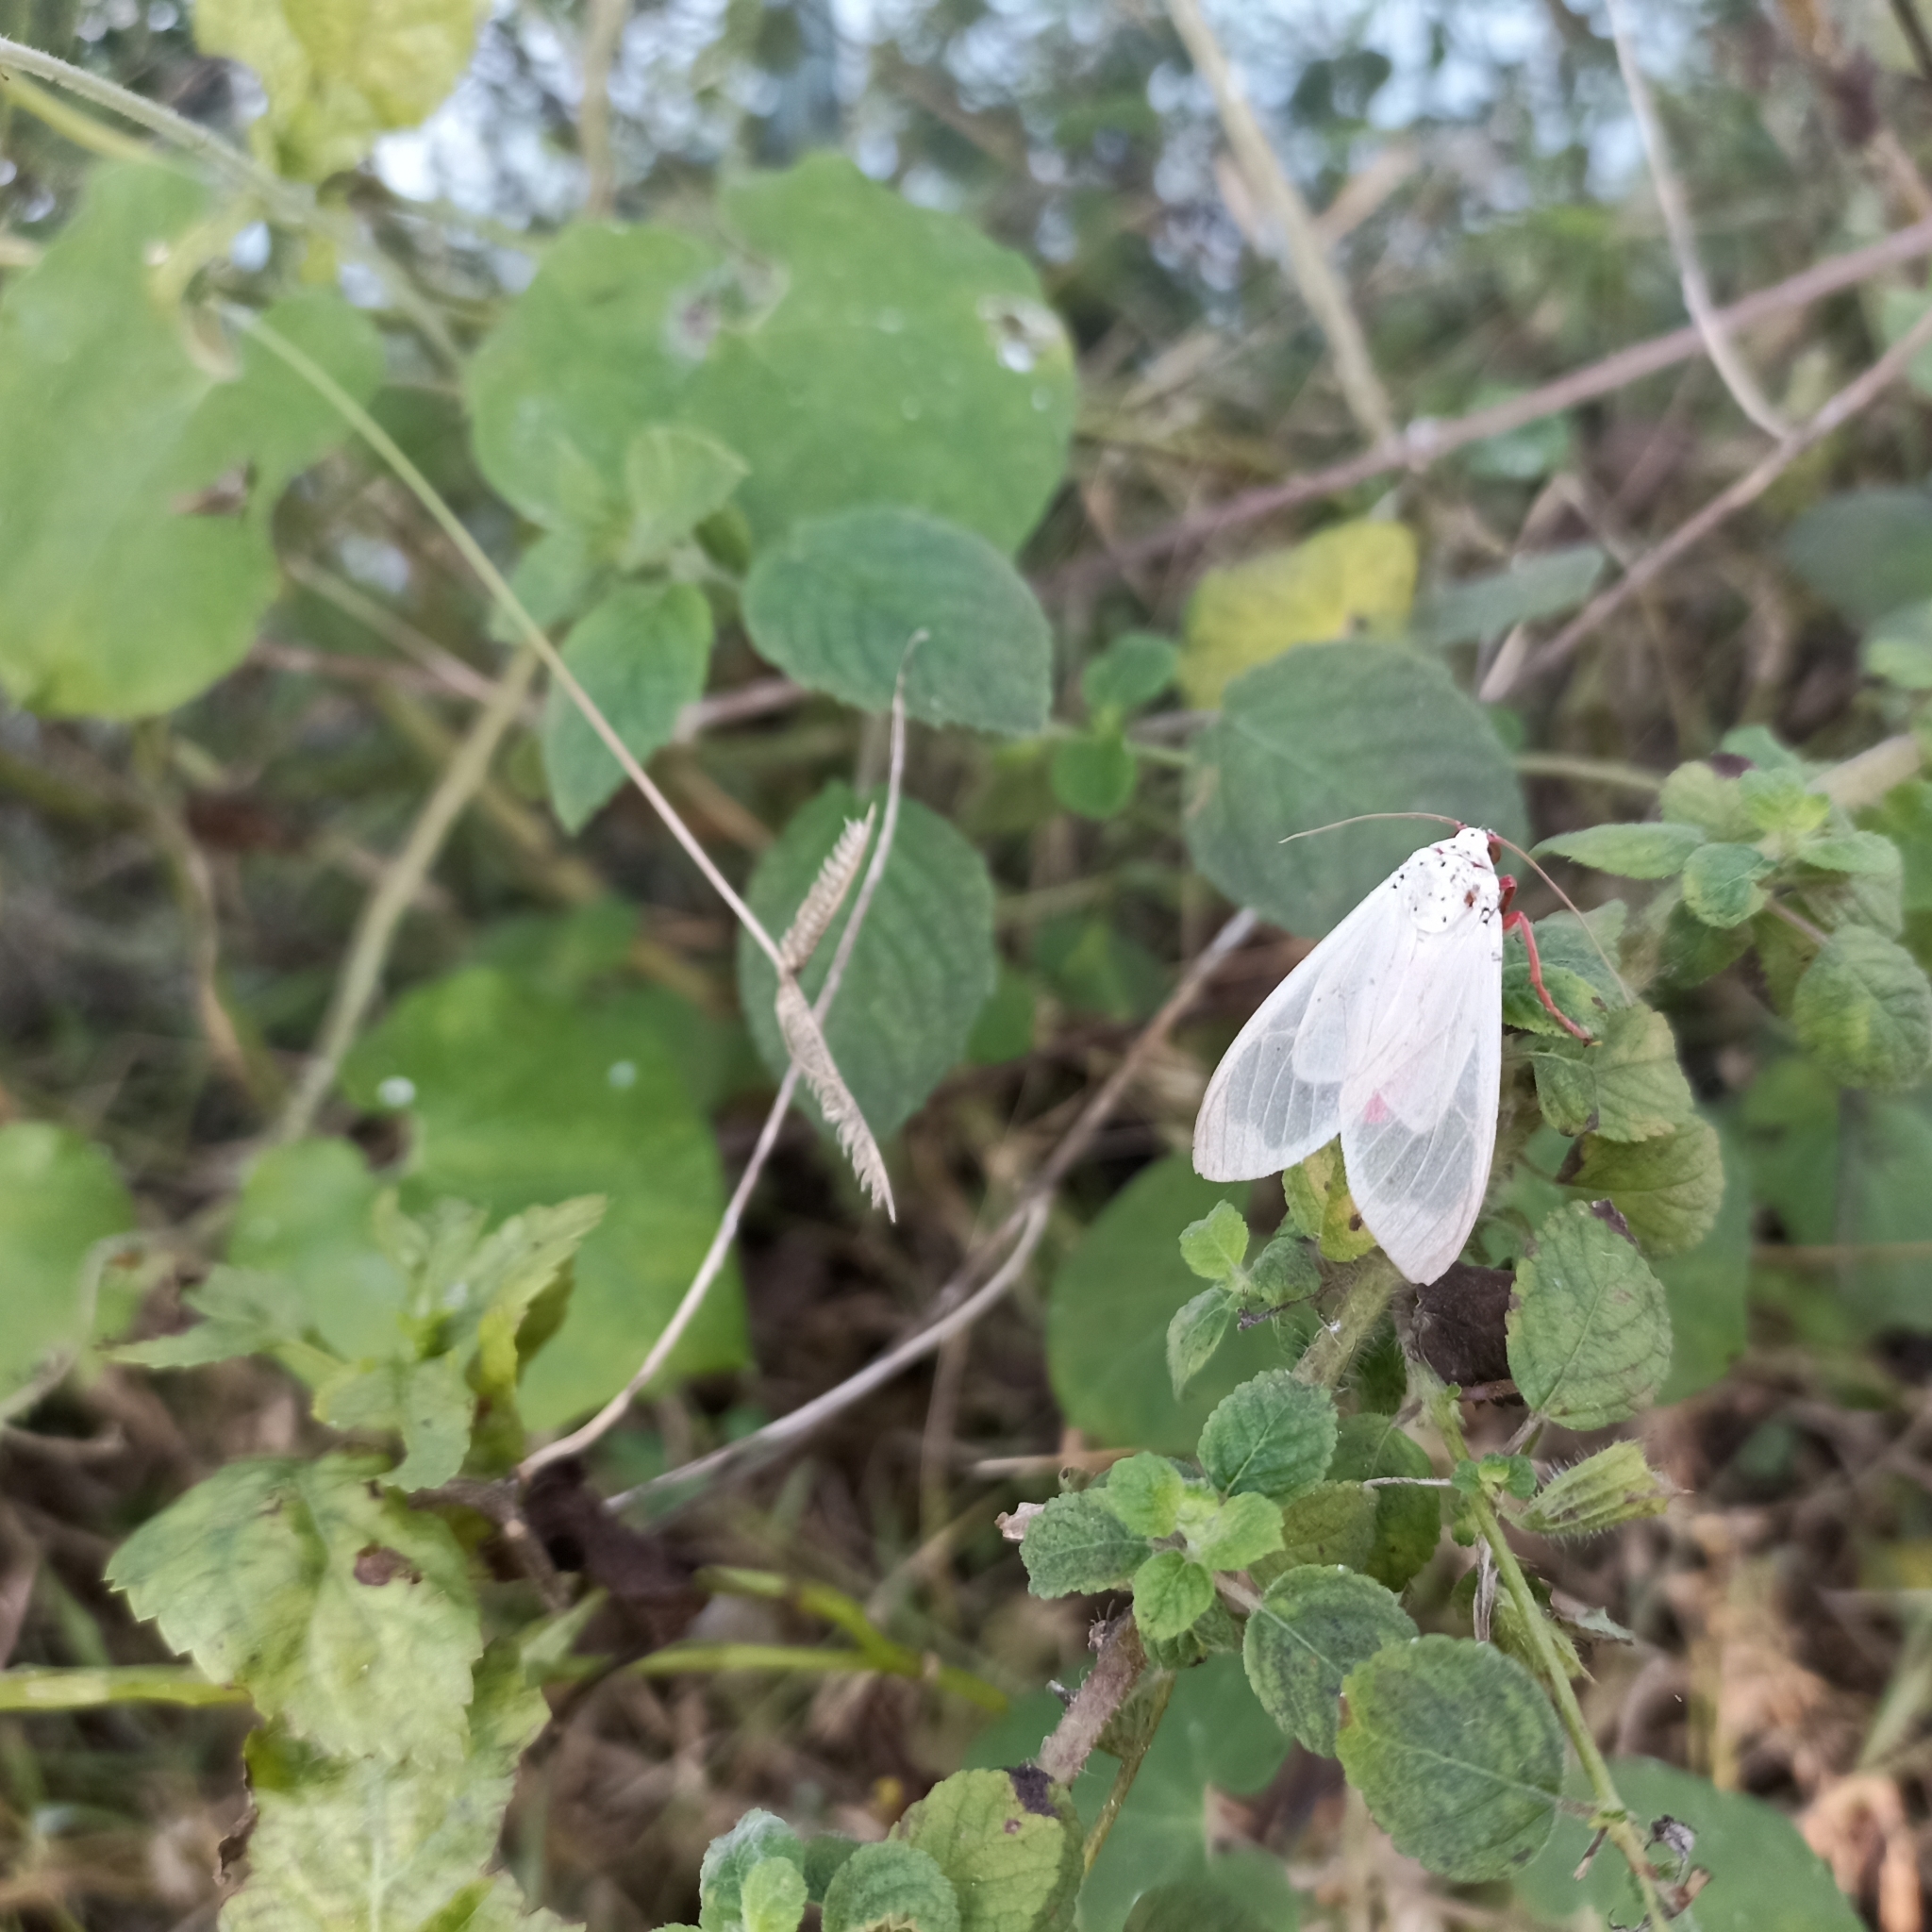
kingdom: Animalia
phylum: Arthropoda
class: Insecta
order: Lepidoptera
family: Erebidae
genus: Amerila
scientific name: Amerila eugenia
